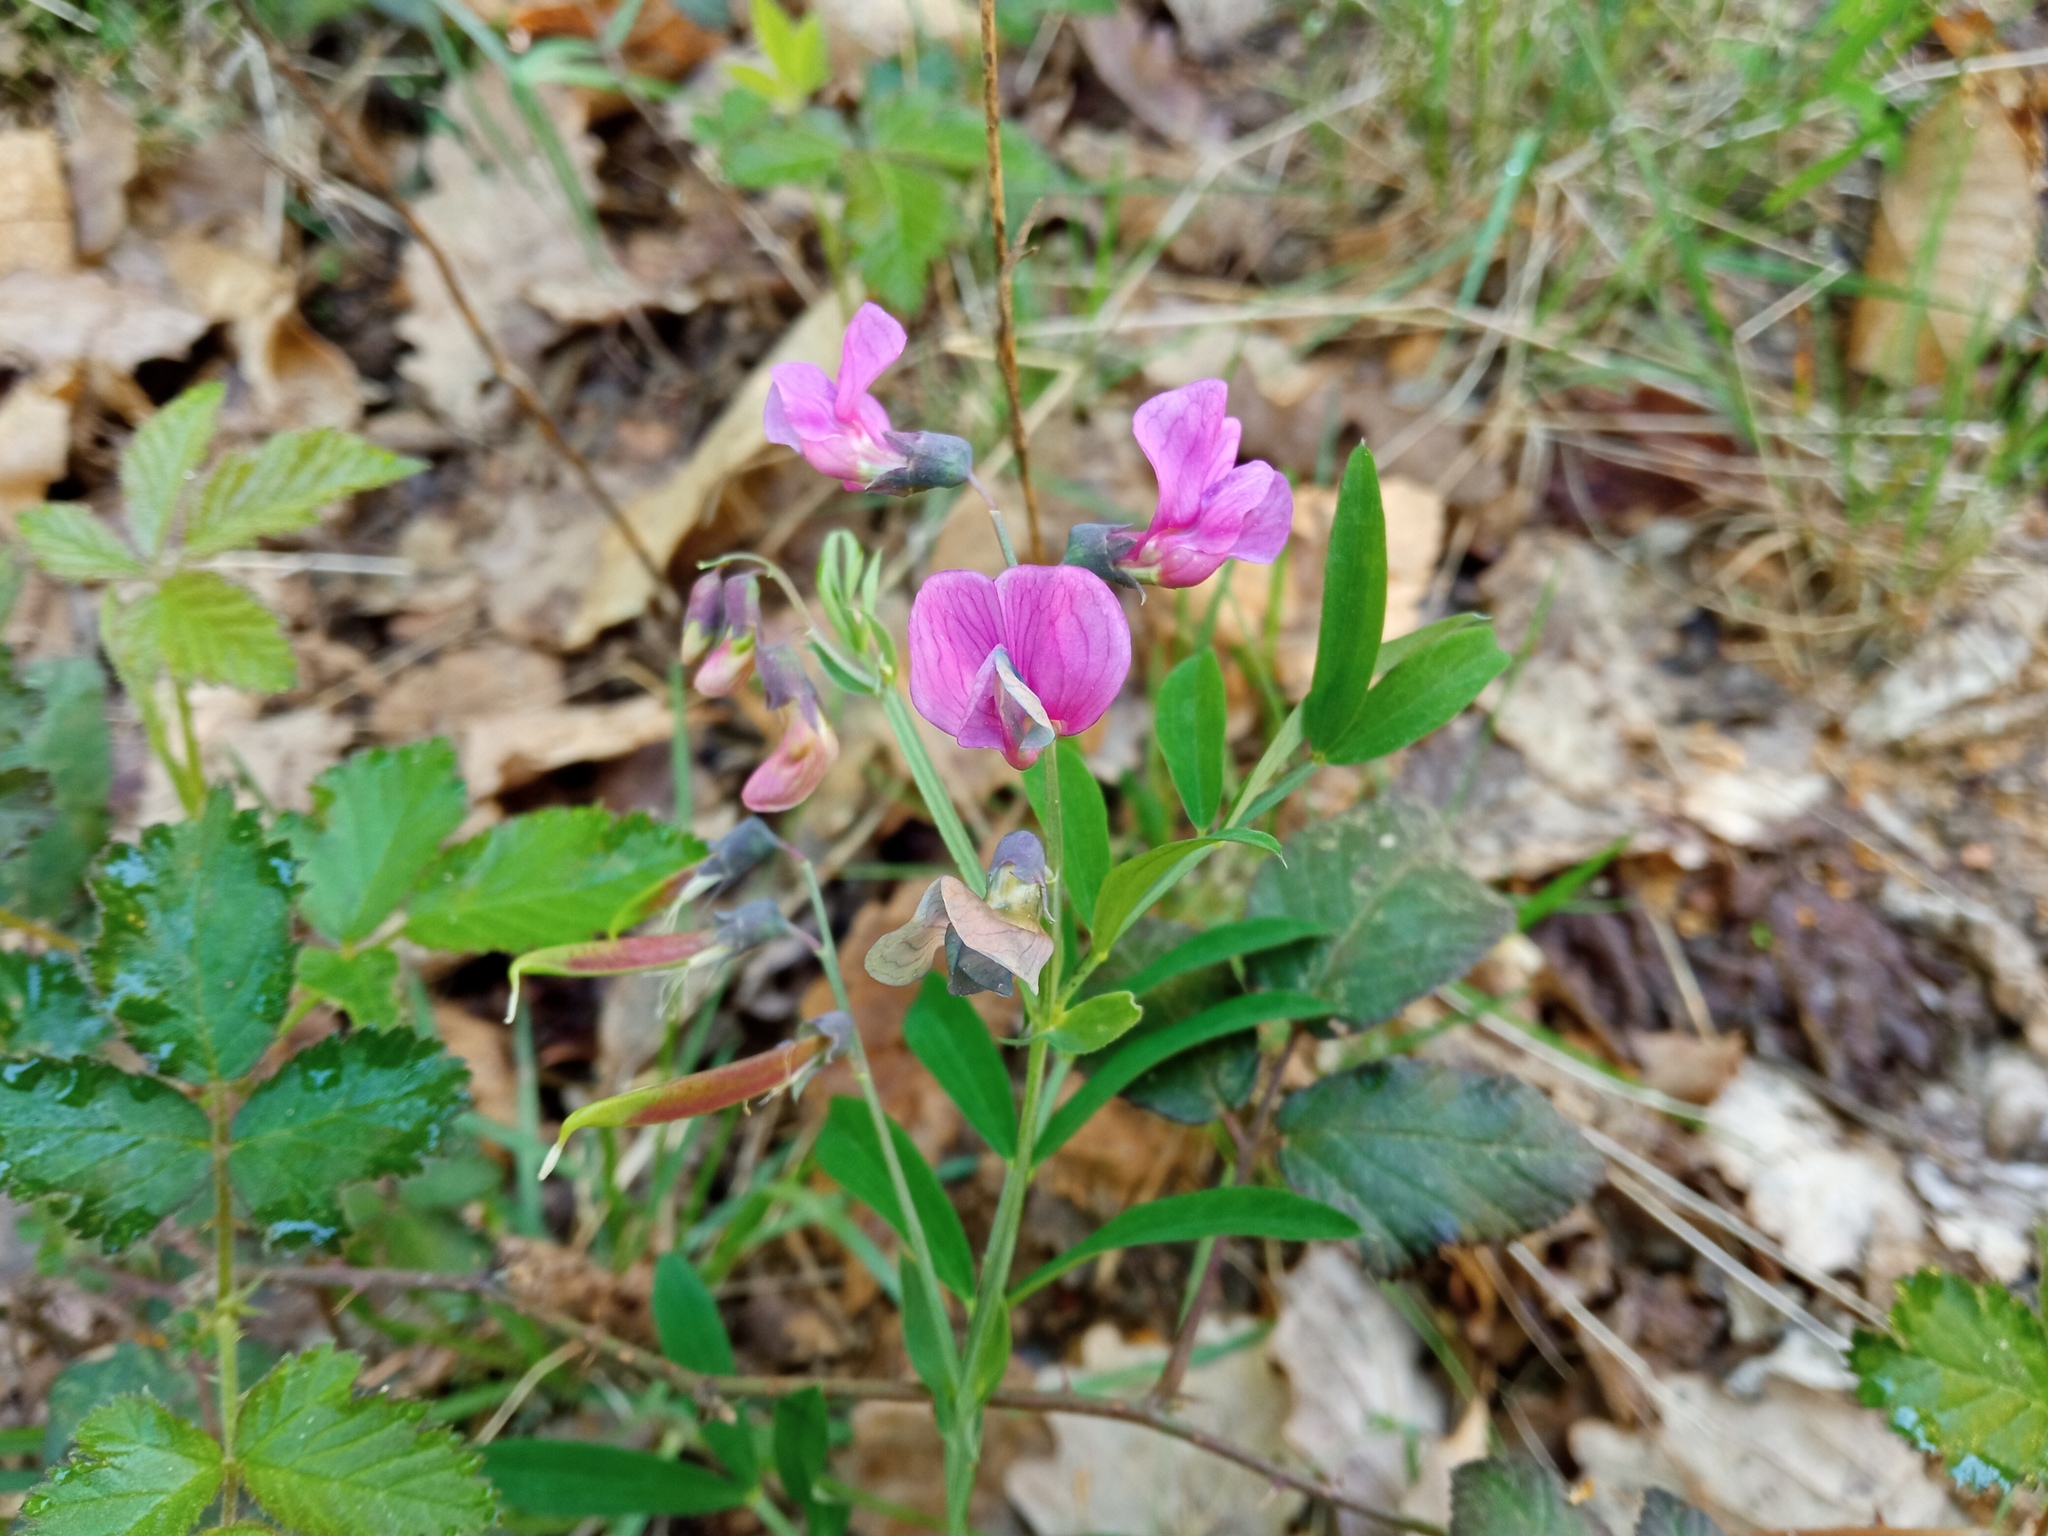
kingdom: Plantae
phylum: Tracheophyta
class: Magnoliopsida
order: Fabales
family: Fabaceae
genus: Lathyrus
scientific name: Lathyrus linifolius
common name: Bitter-vetch
